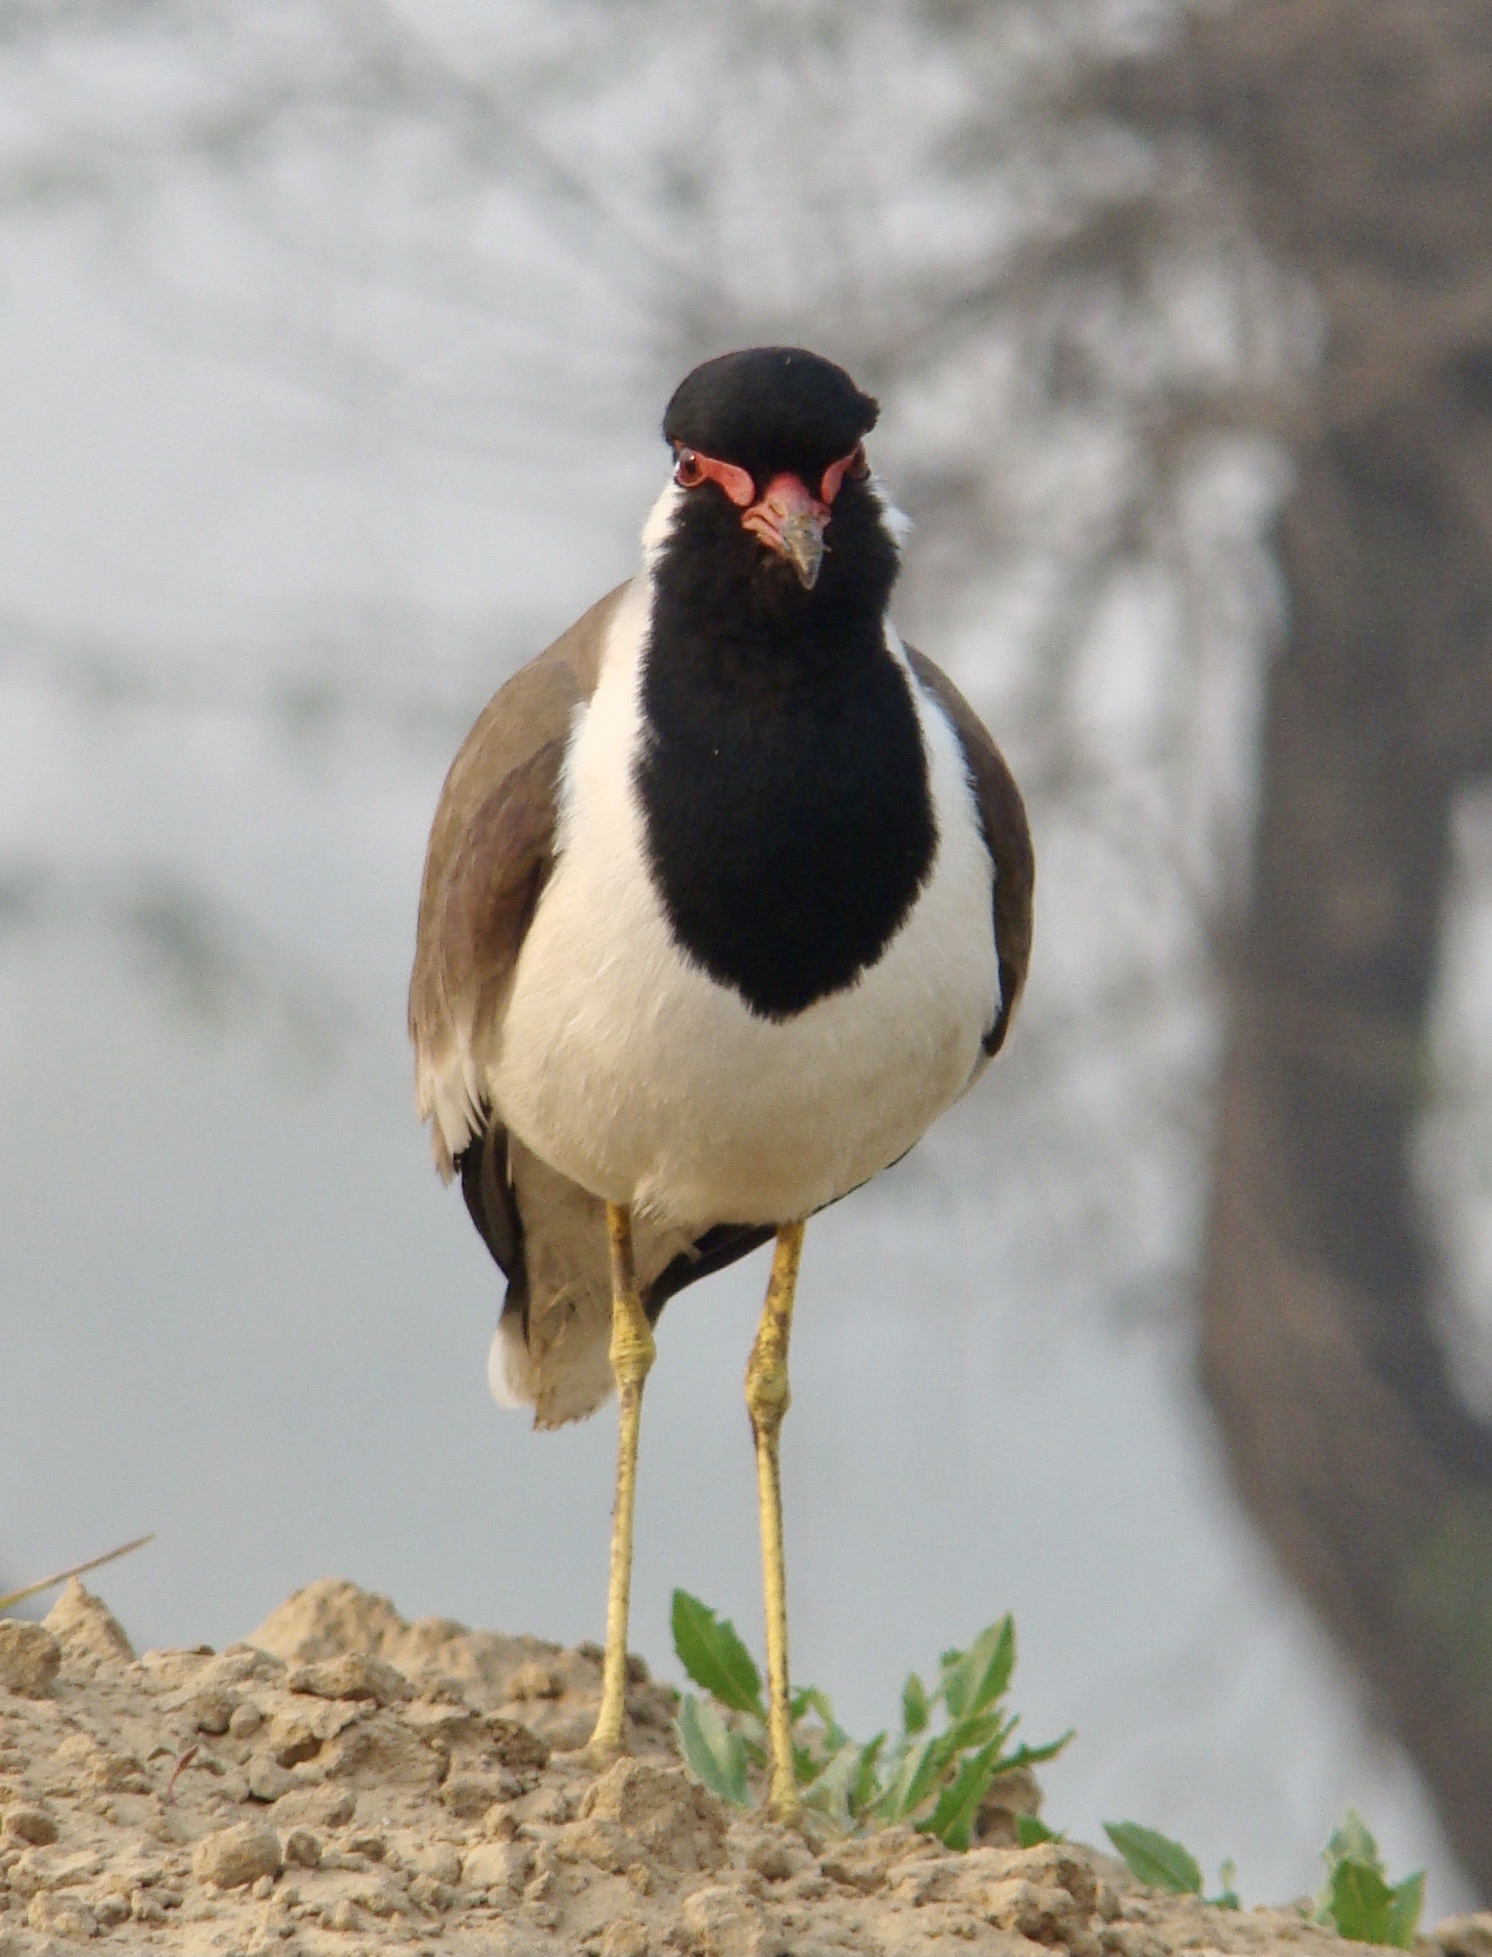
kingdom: Animalia
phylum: Chordata
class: Aves
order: Charadriiformes
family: Charadriidae
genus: Vanellus
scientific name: Vanellus indicus
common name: Red-wattled lapwing
